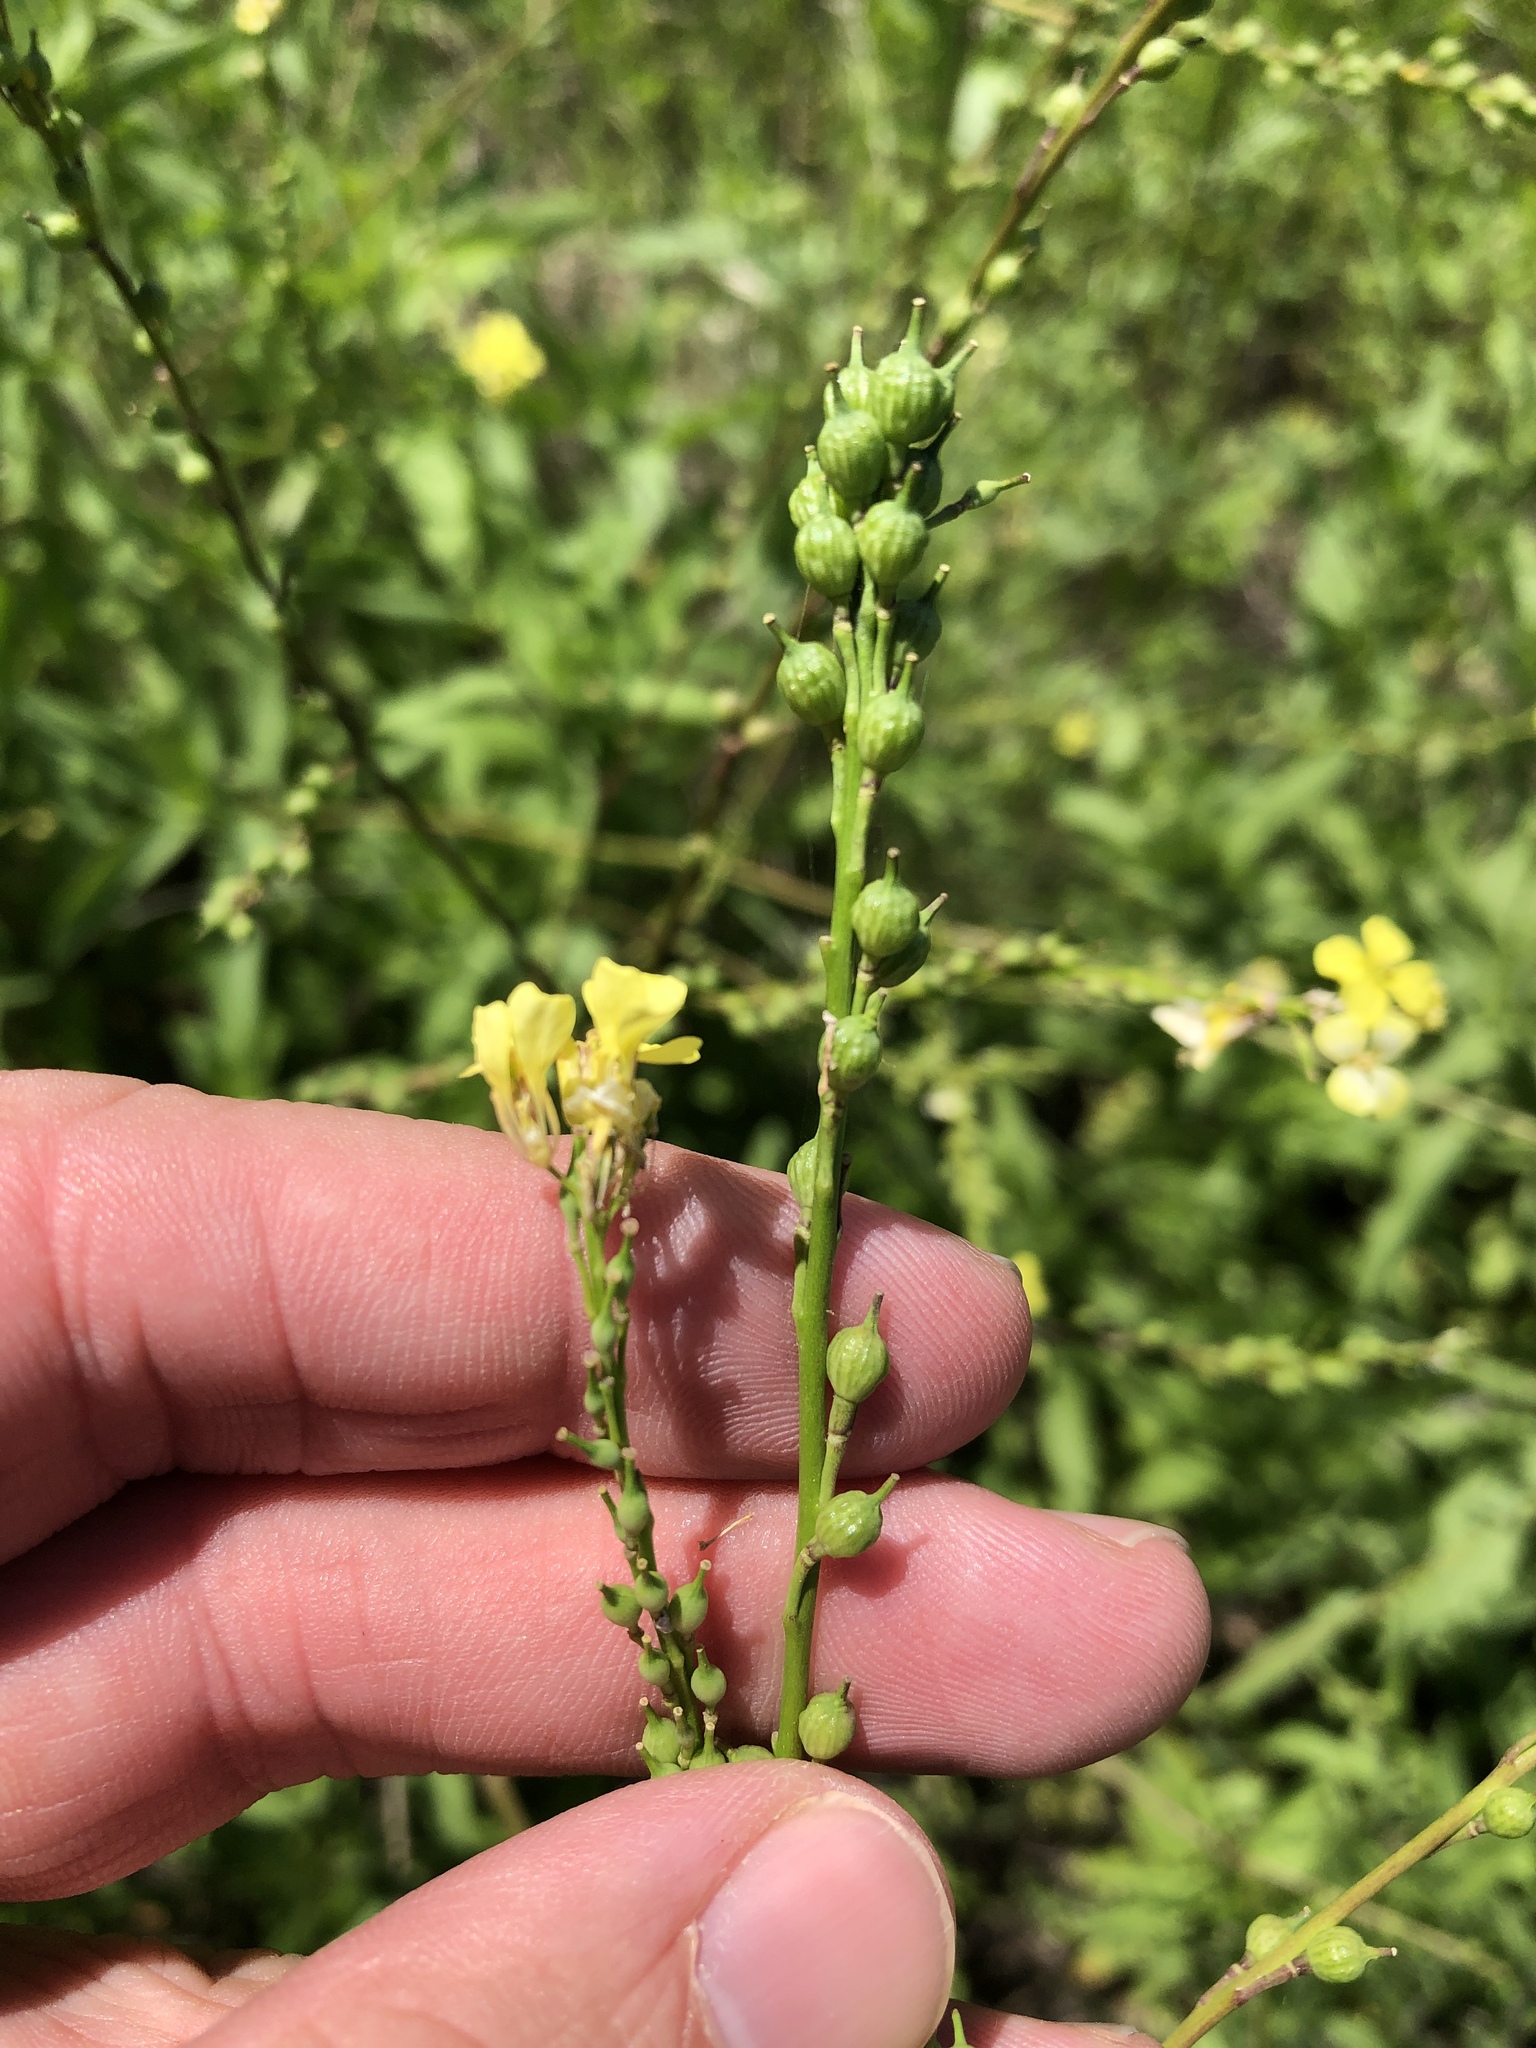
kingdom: Plantae
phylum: Tracheophyta
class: Magnoliopsida
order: Brassicales
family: Brassicaceae
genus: Rapistrum
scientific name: Rapistrum rugosum
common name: Annual bastardcabbage
